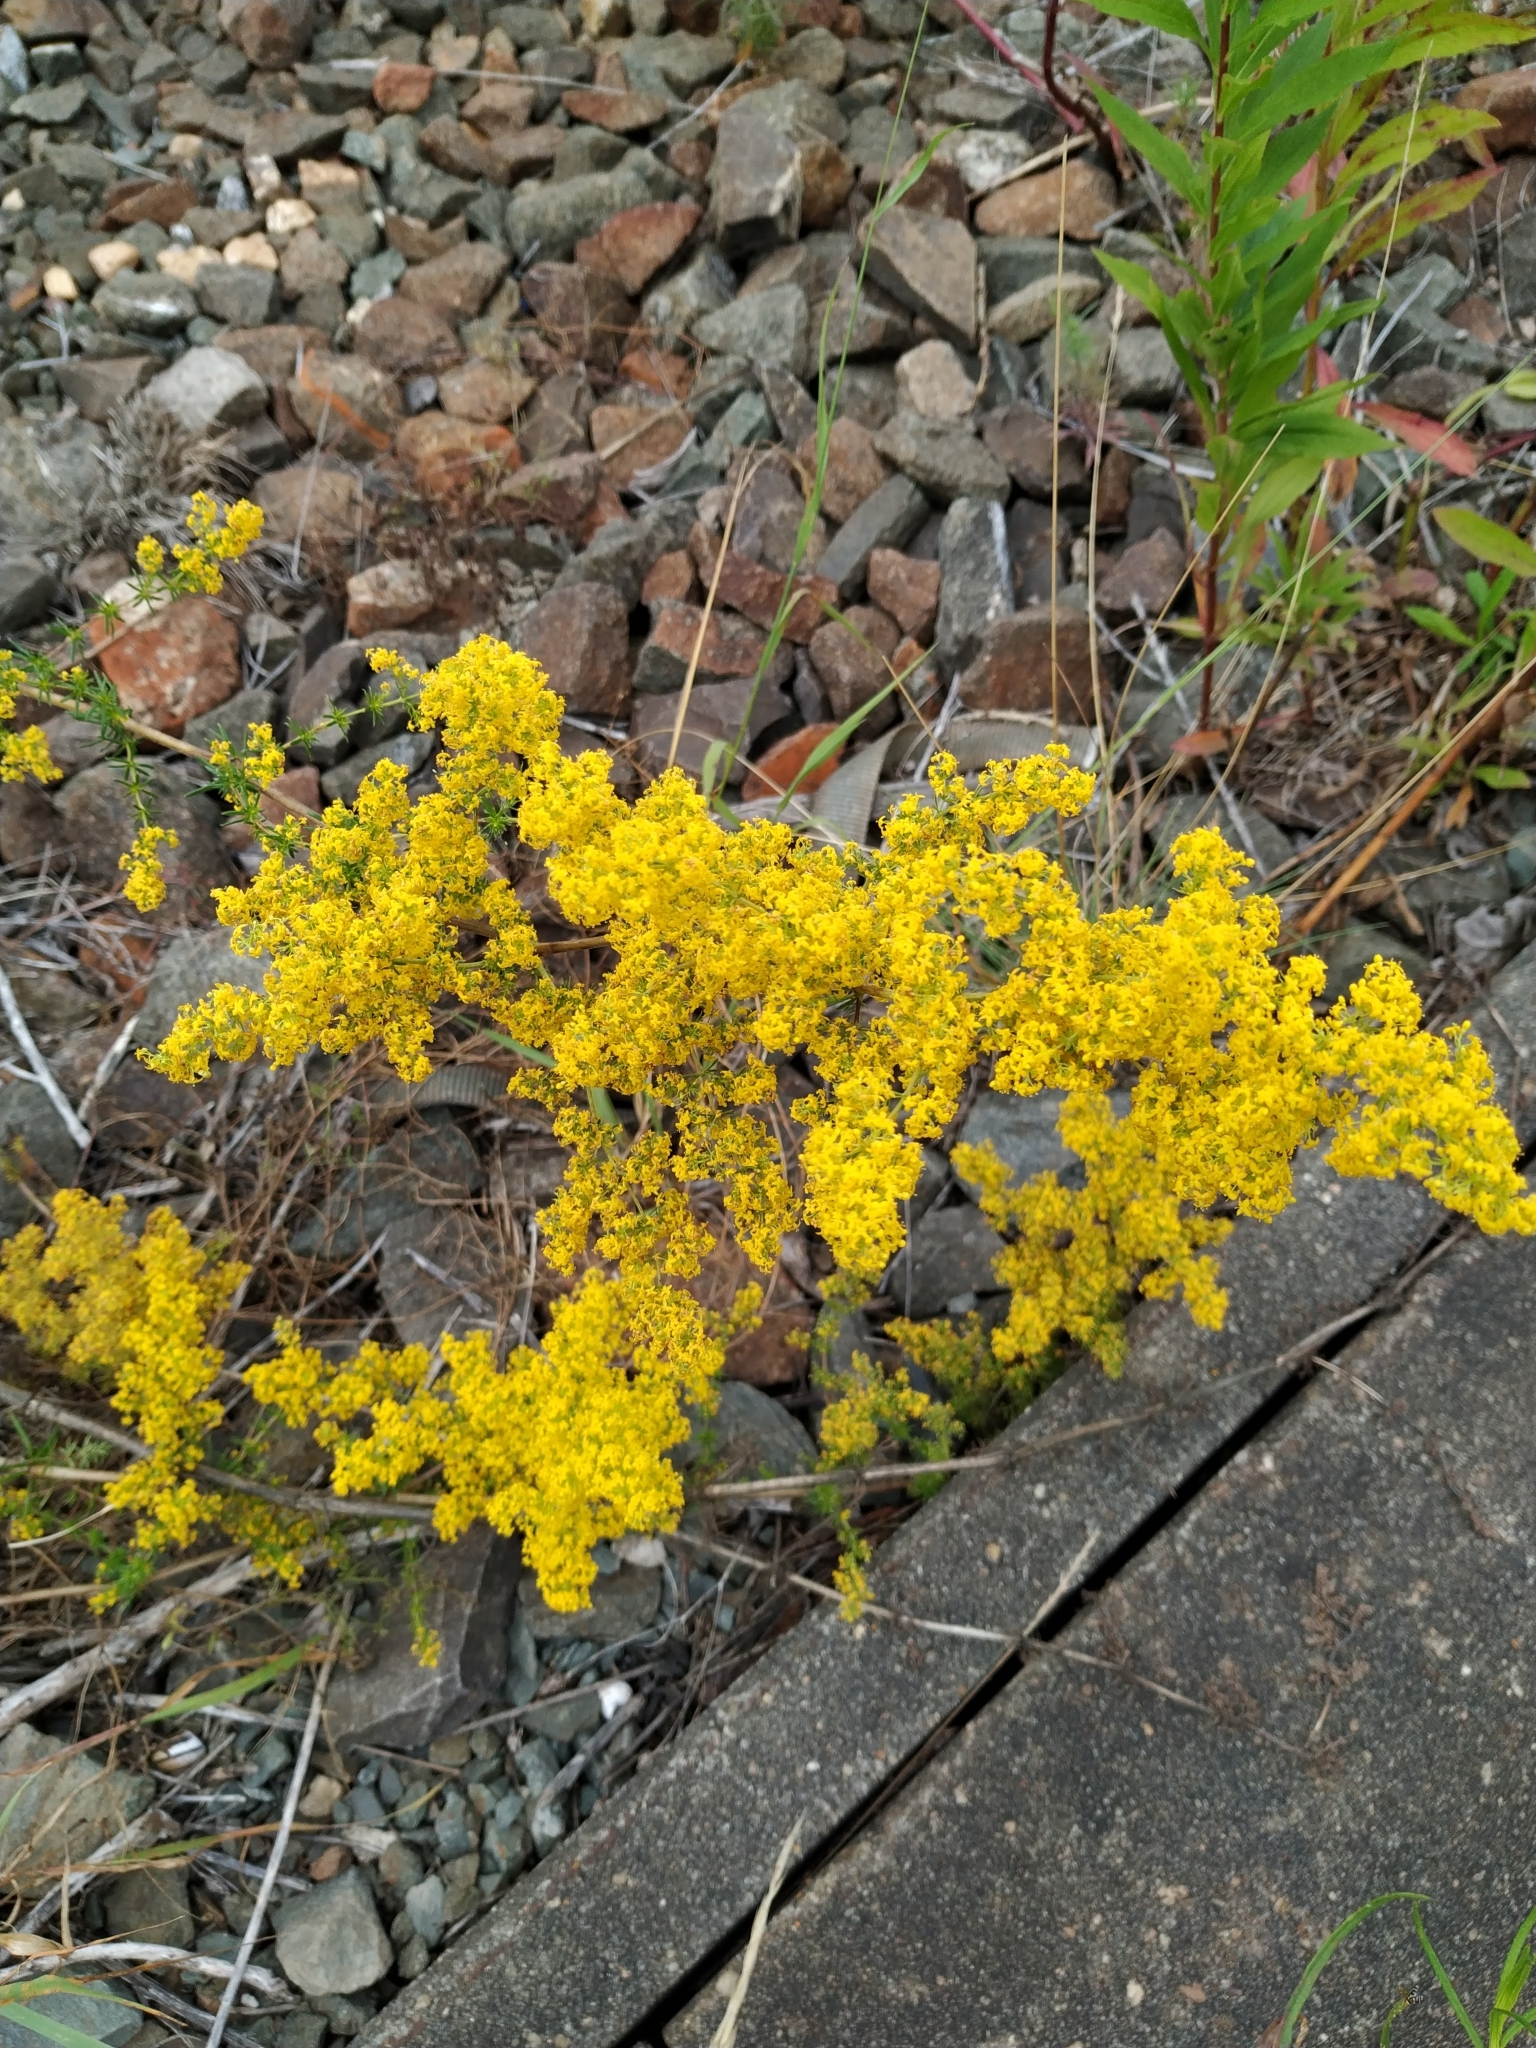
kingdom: Plantae
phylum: Tracheophyta
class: Magnoliopsida
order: Gentianales
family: Rubiaceae
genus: Galium
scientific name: Galium verum
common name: Lady's bedstraw
